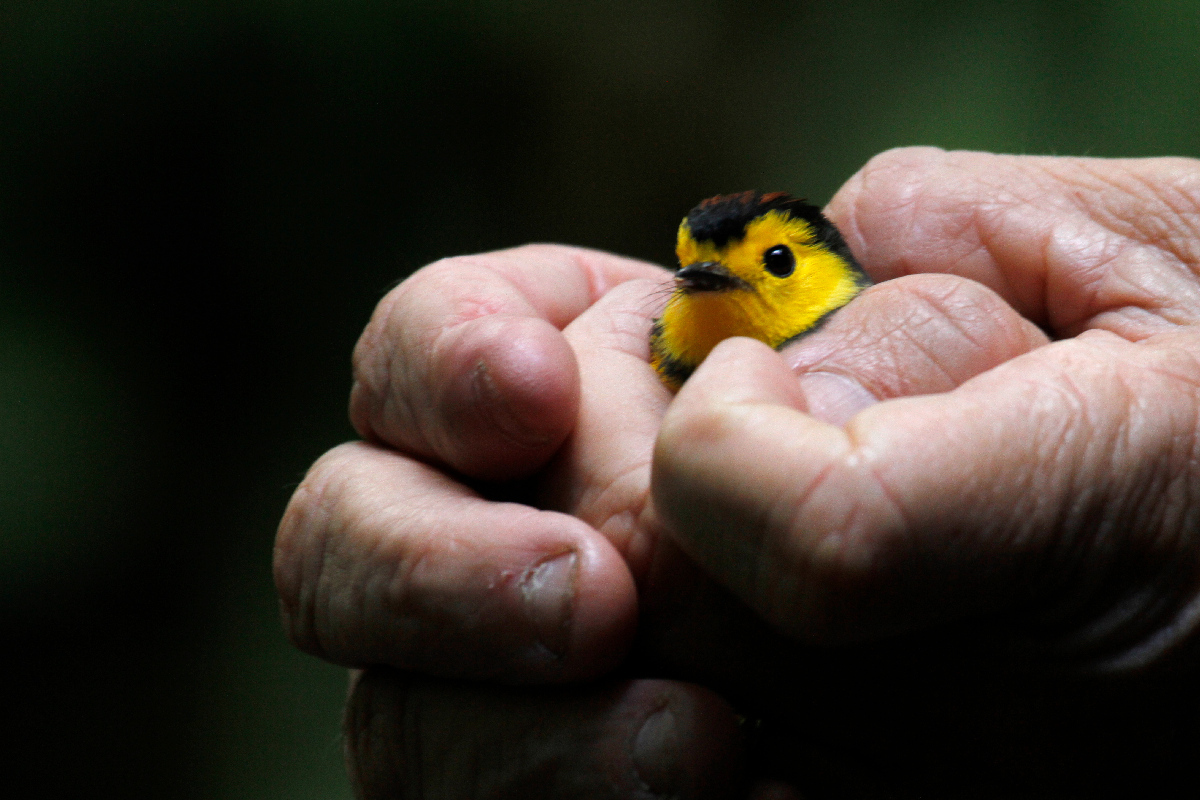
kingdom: Animalia
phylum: Chordata
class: Aves
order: Passeriformes
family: Parulidae
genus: Myioborus
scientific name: Myioborus torquatus
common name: Collared whitestart
